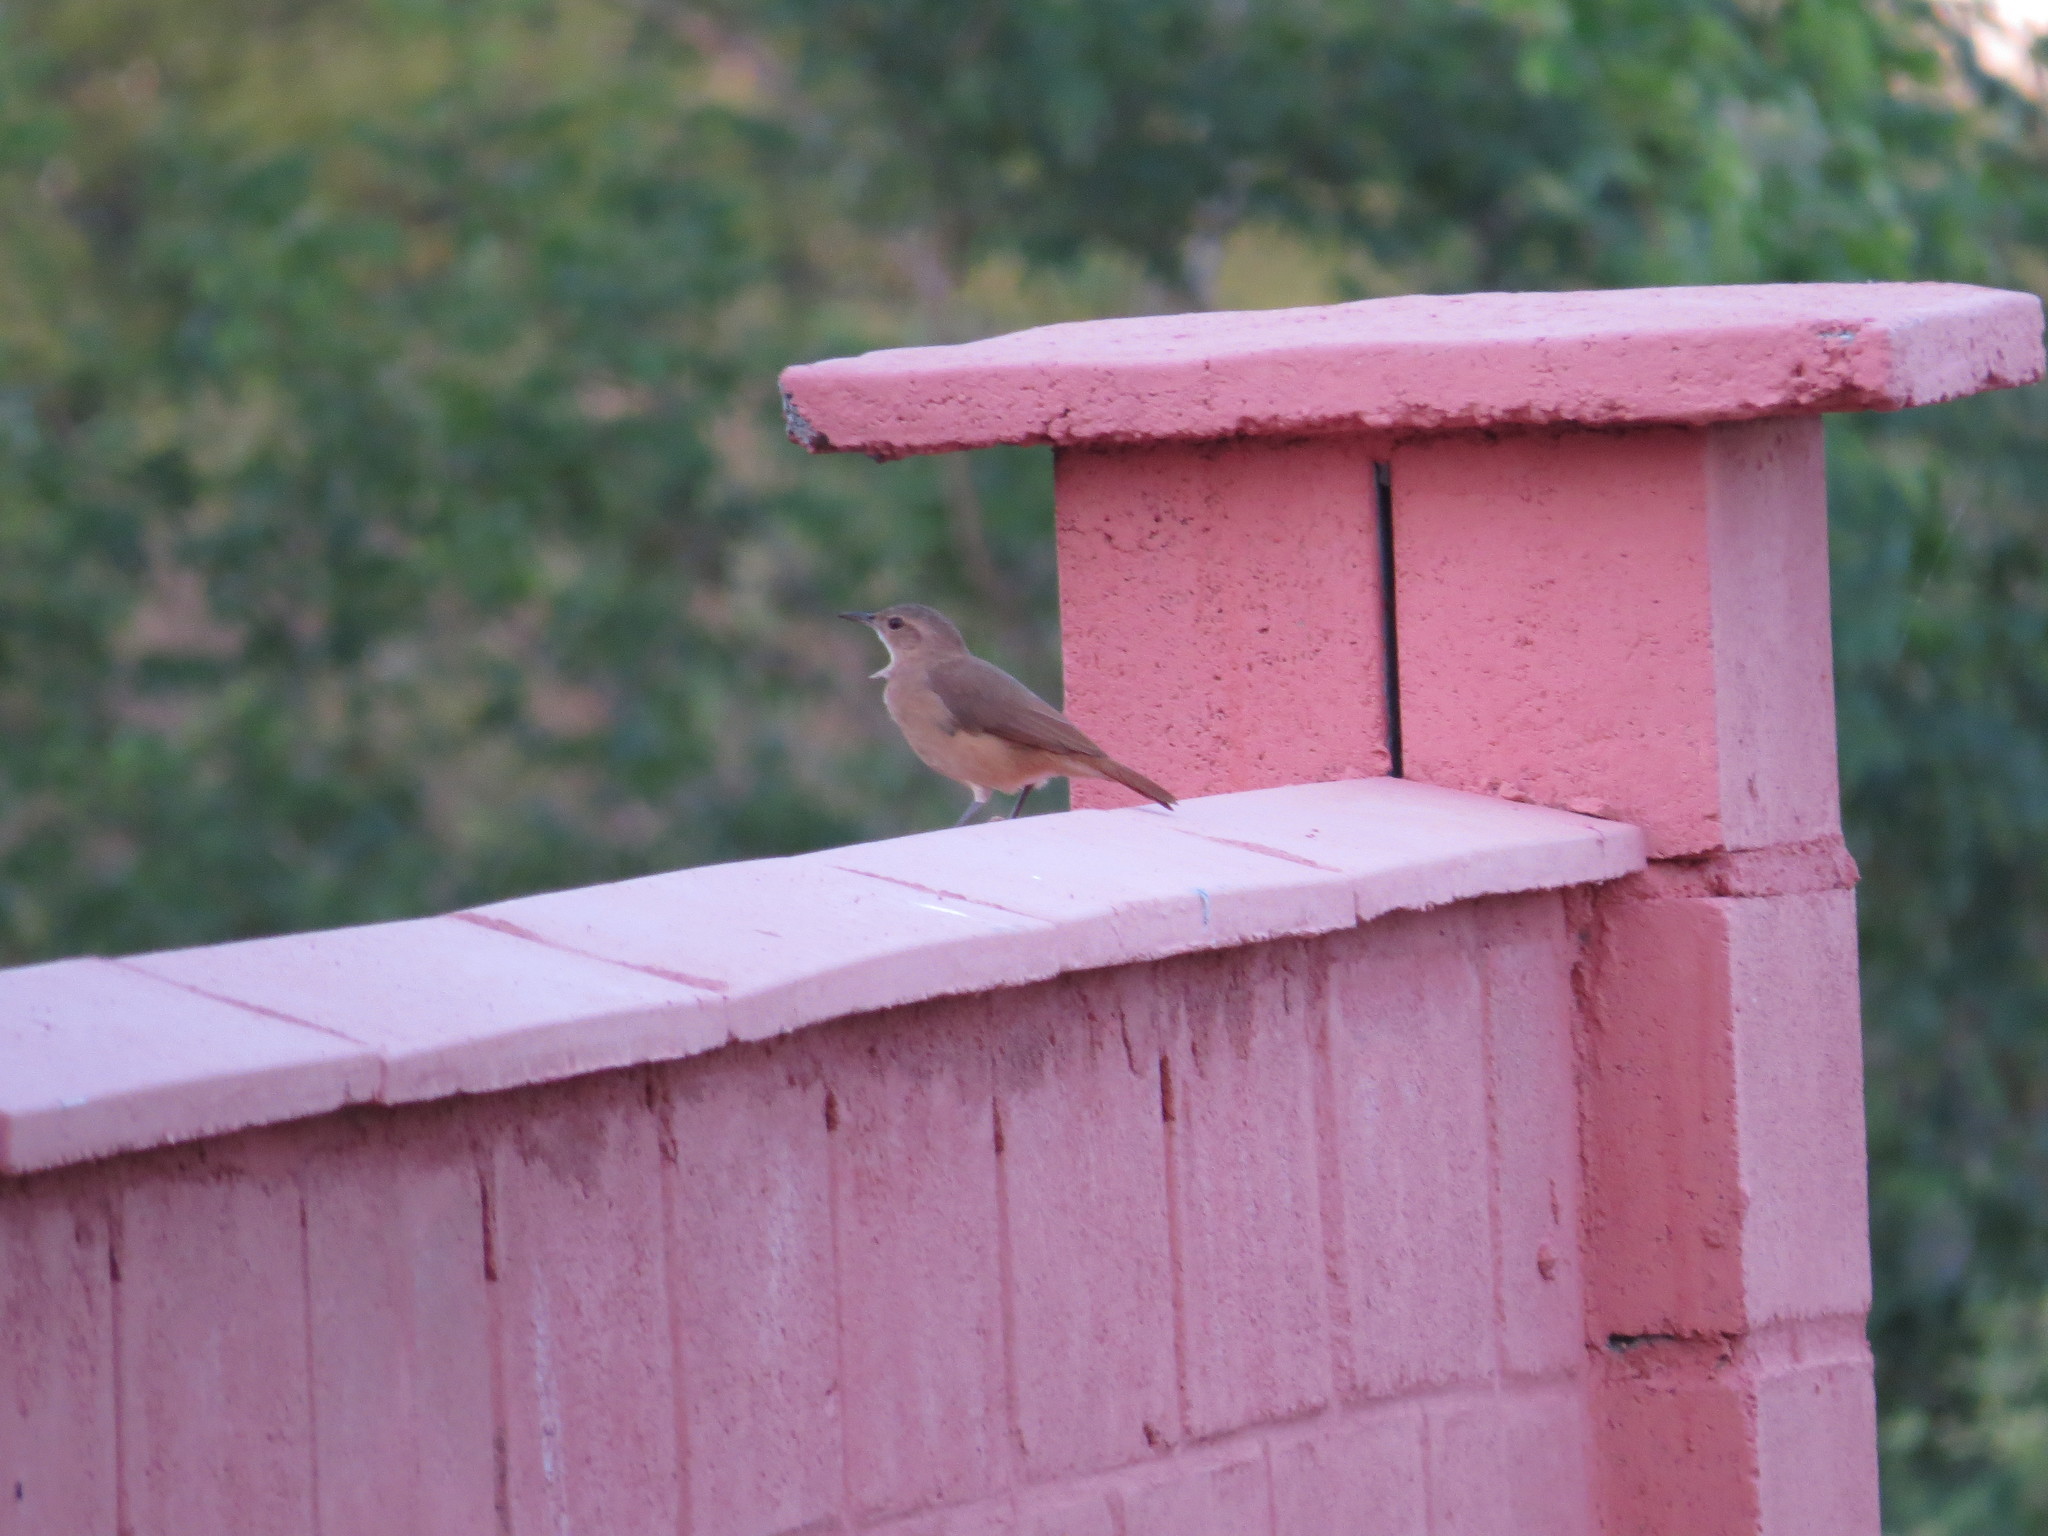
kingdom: Animalia
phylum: Chordata
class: Aves
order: Passeriformes
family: Furnariidae
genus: Furnarius
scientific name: Furnarius rufus
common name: Rufous hornero
